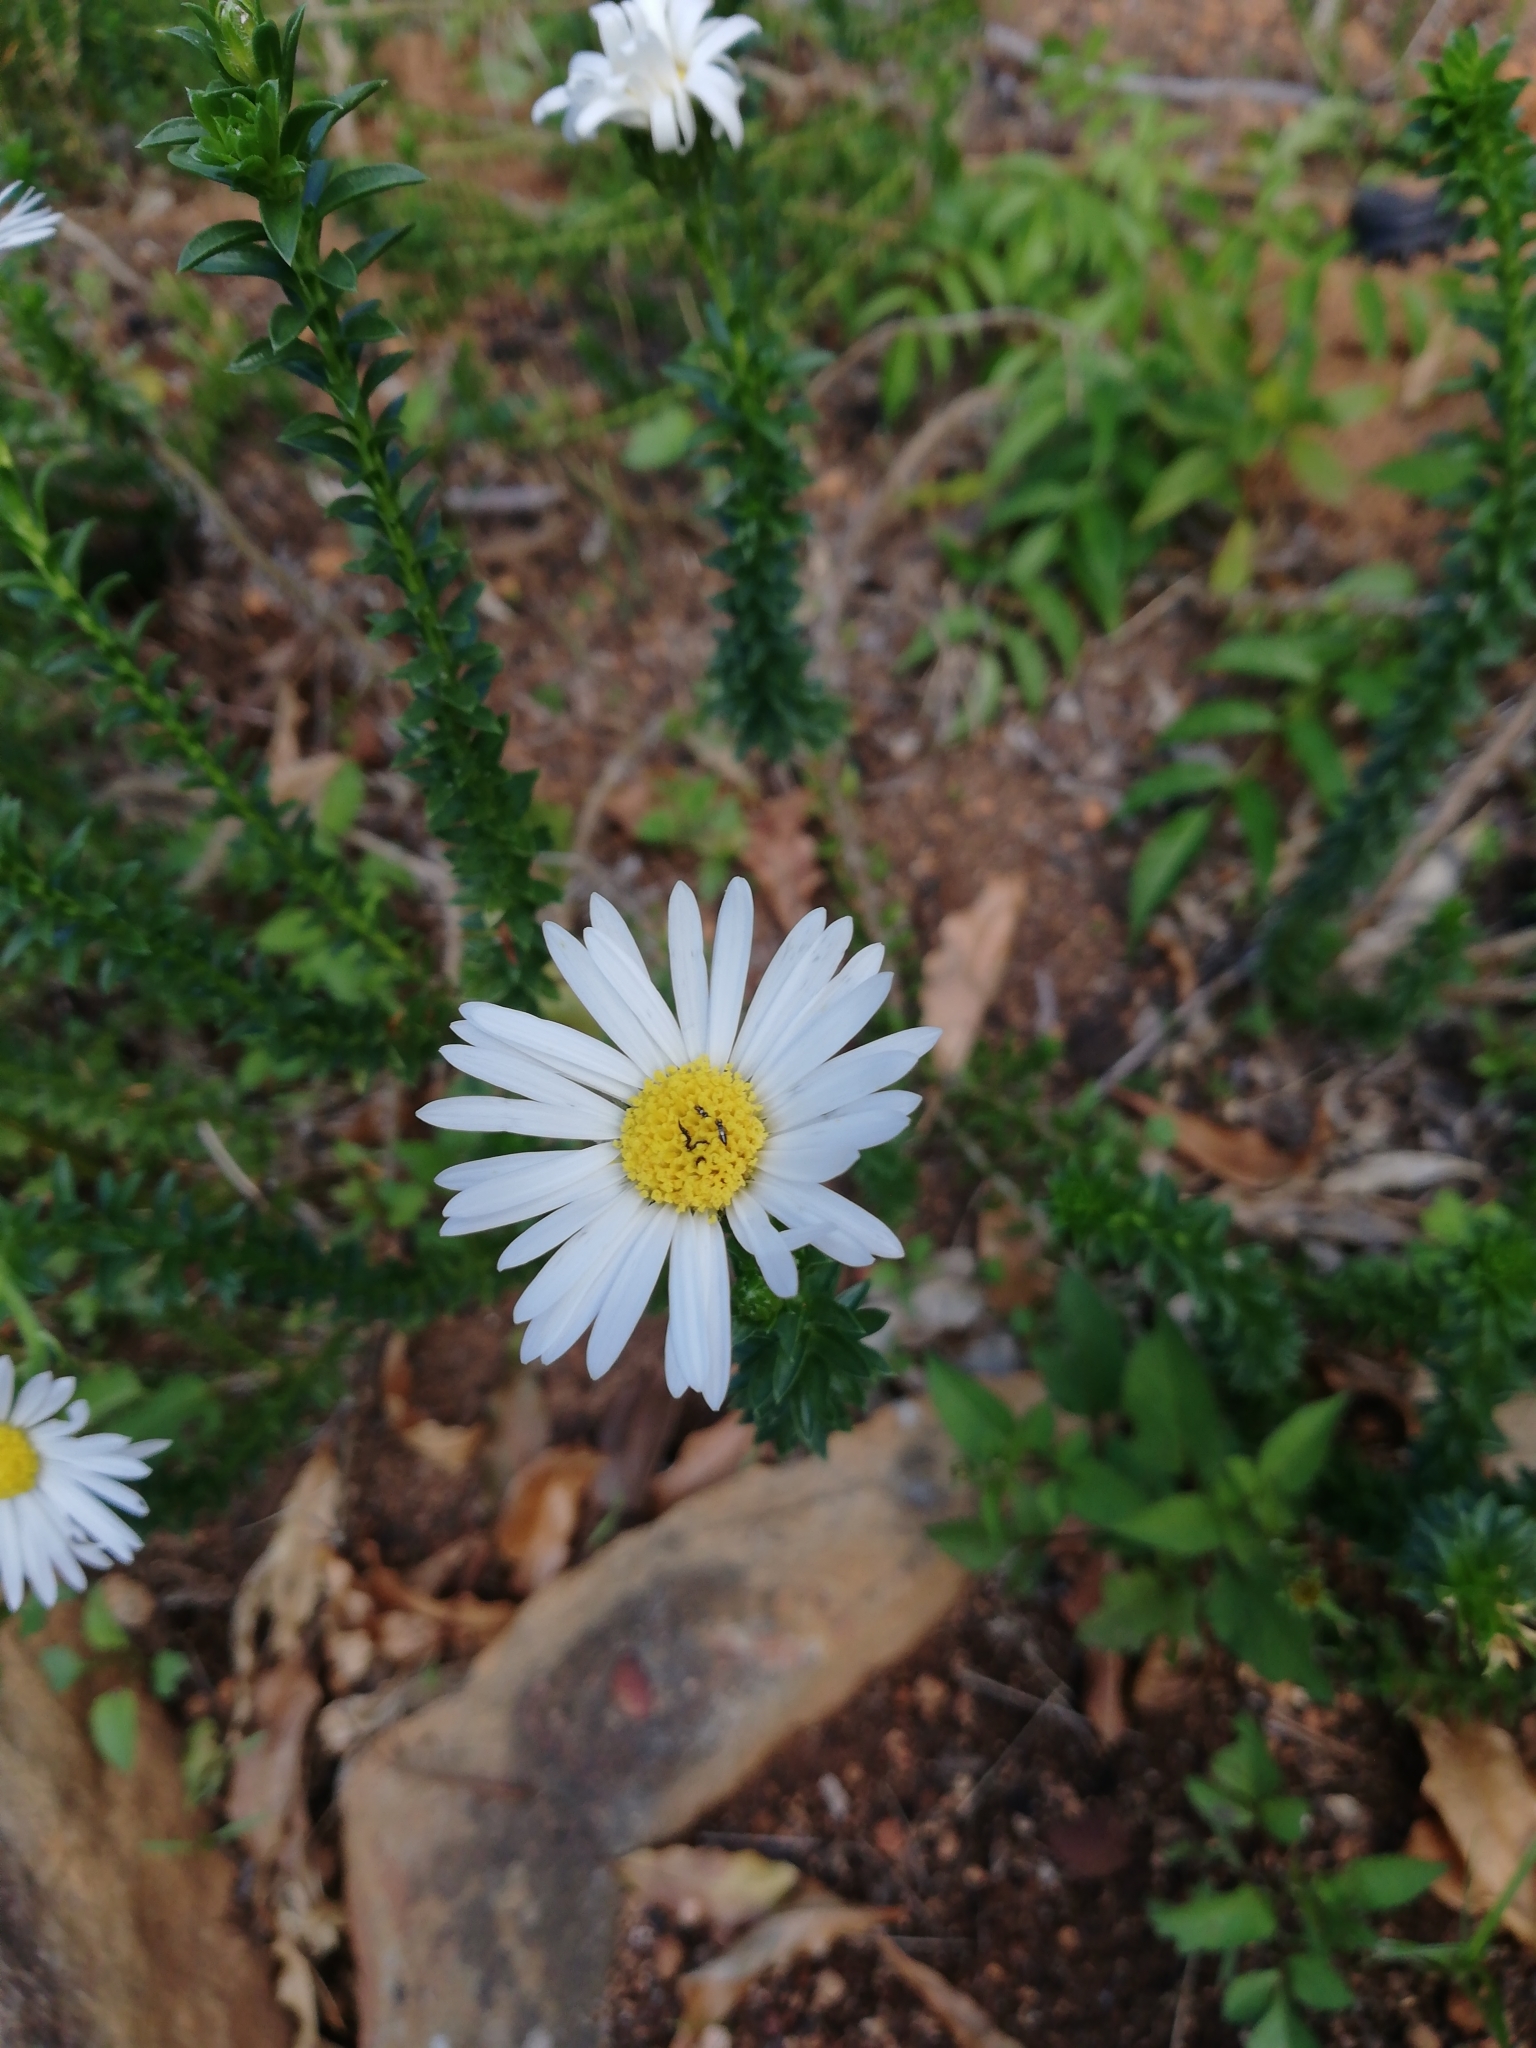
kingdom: Plantae
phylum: Tracheophyta
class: Magnoliopsida
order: Asterales
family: Asteraceae
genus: Felicia
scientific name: Felicia echinata
